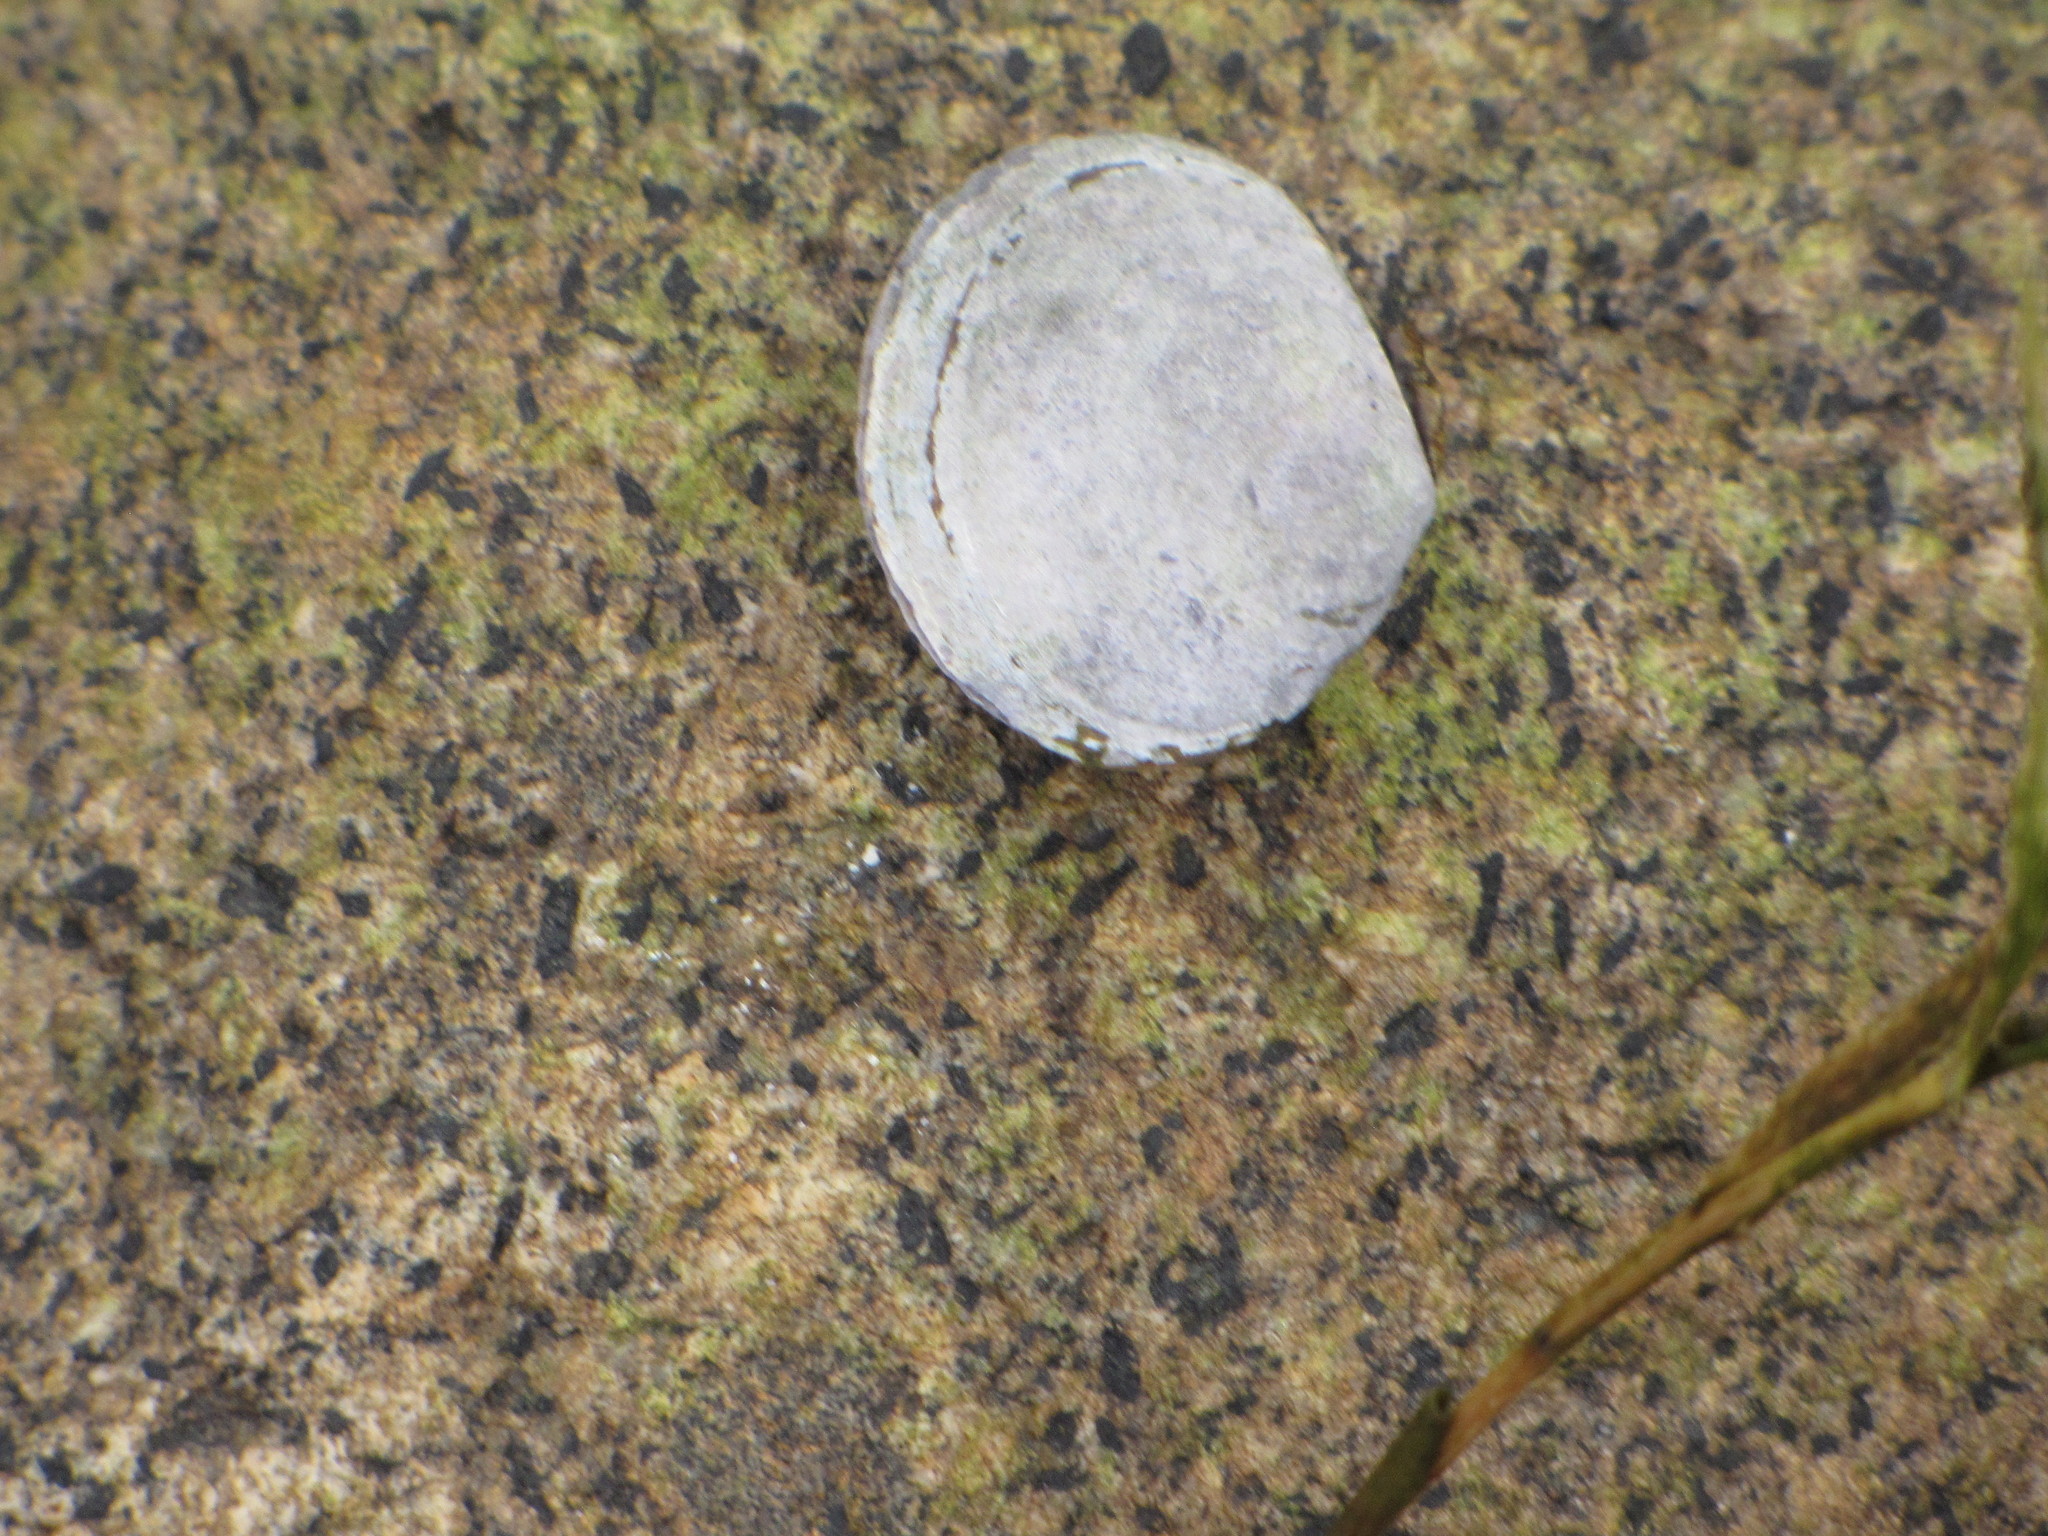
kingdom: Animalia
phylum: Mollusca
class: Bivalvia
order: Cardiida
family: Psammobiidae
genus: Nuttallia
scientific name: Nuttallia obscurata
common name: Purple mahogany-clam
